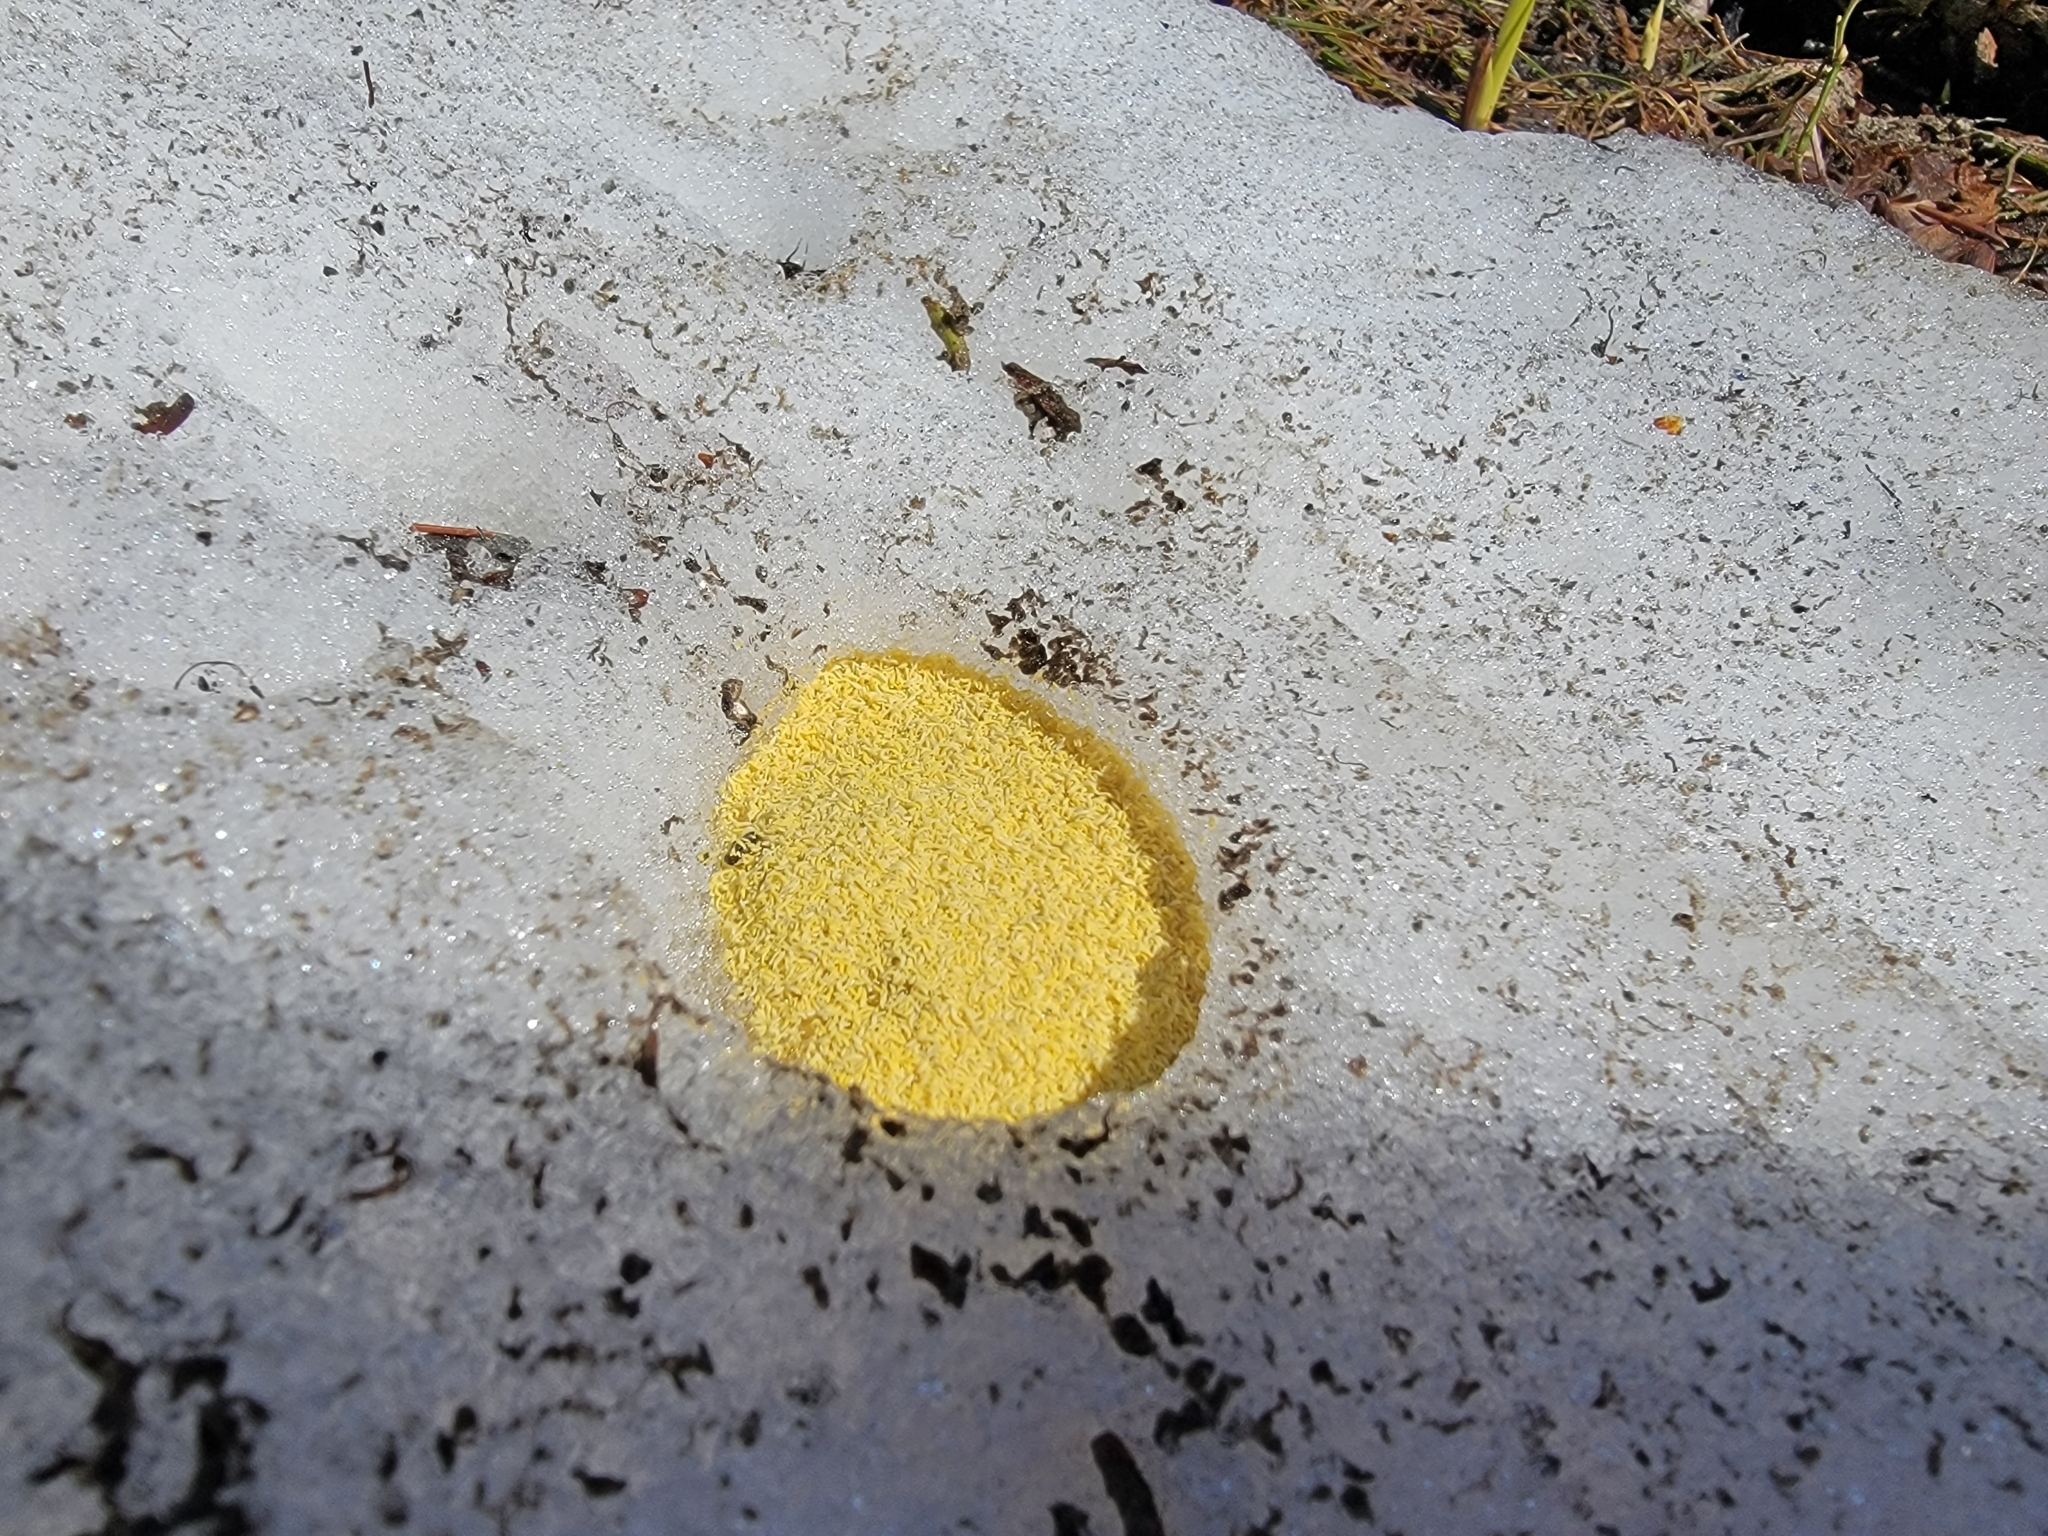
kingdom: Animalia
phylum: Arthropoda
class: Collembola
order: Poduromorpha
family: Onychiuridae
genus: Hymenaphorura
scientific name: Hymenaphorura cocklei
